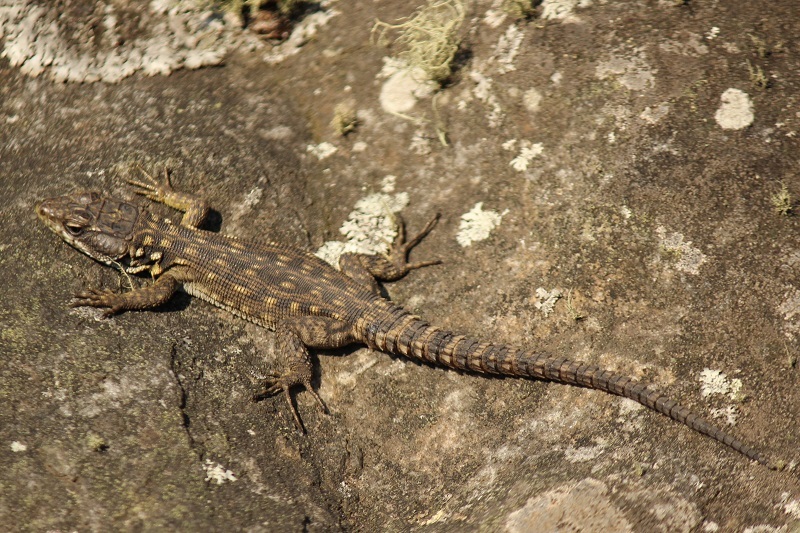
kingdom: Animalia
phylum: Chordata
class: Squamata
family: Cordylidae
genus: Pseudocordylus
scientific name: Pseudocordylus melanotus
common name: Highveld crag lizard
